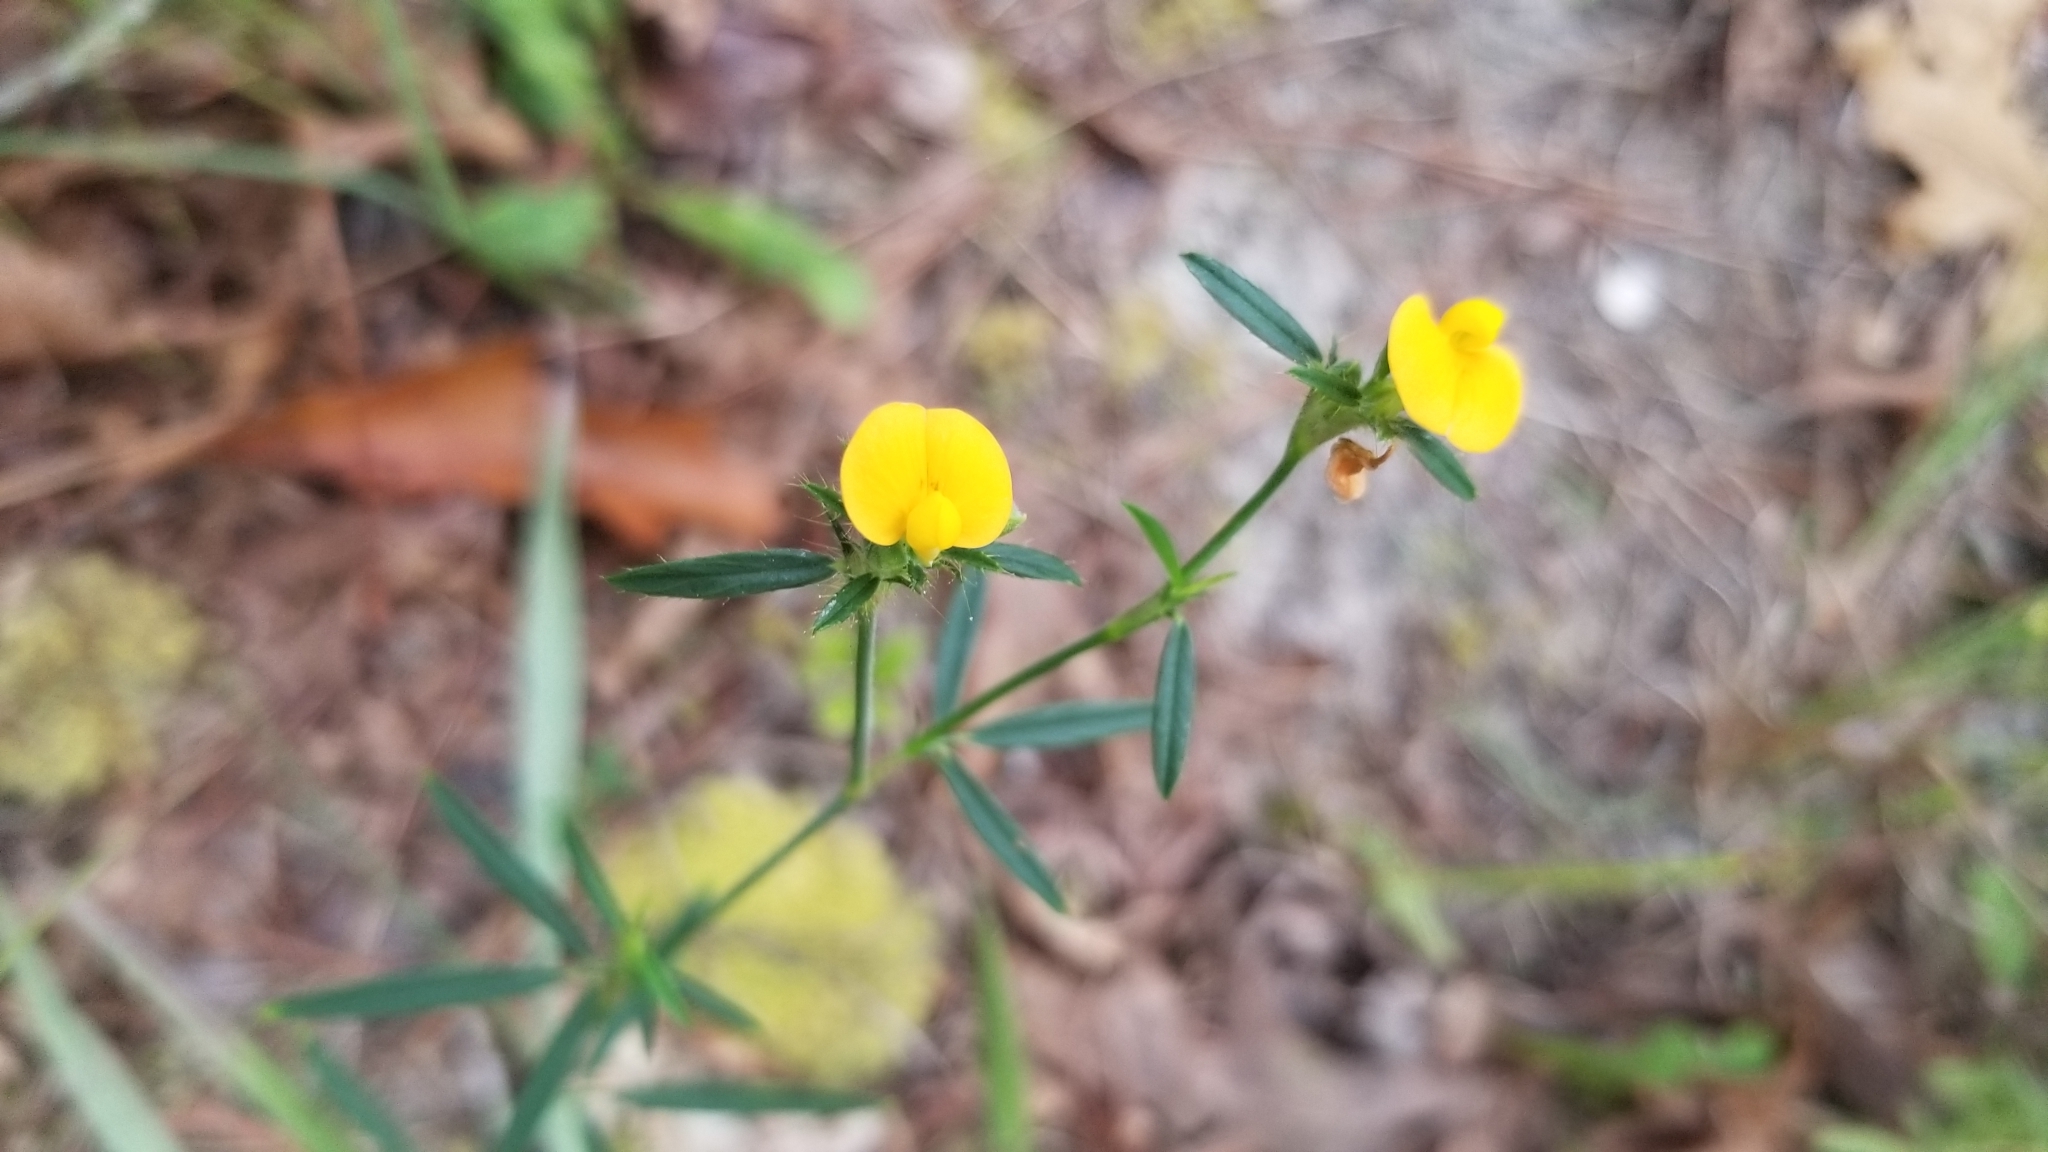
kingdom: Plantae
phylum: Tracheophyta
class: Magnoliopsida
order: Fabales
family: Fabaceae
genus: Stylosanthes
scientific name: Stylosanthes biflora
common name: Two-flower pencil-flower
